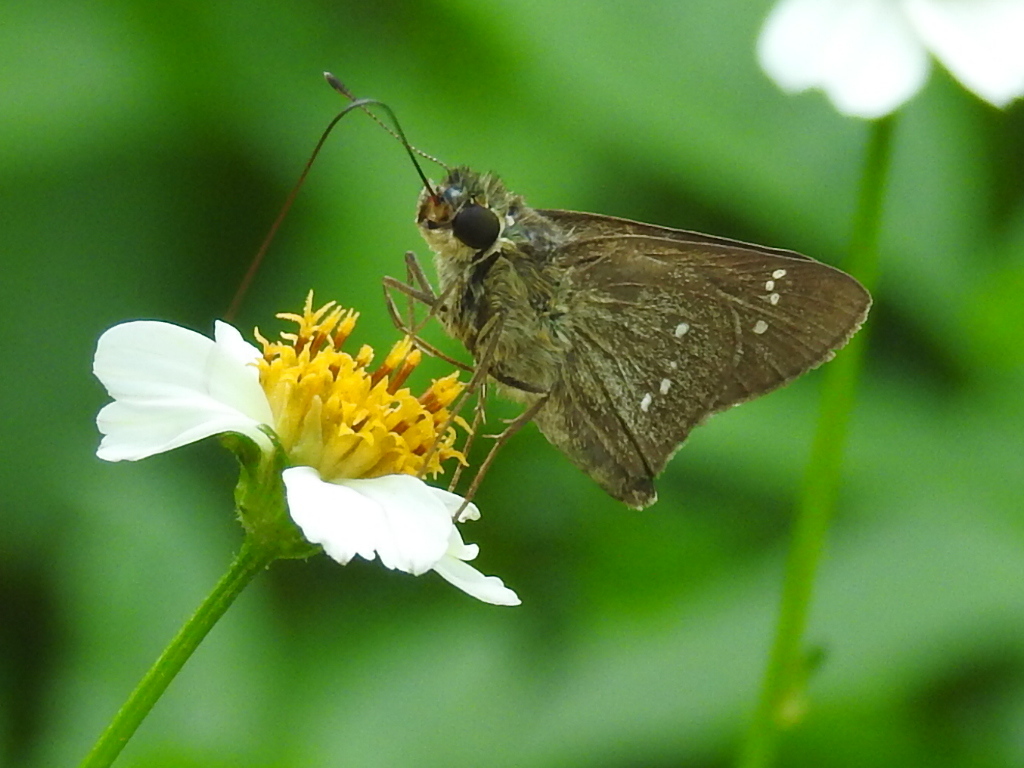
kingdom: Animalia
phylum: Arthropoda
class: Insecta
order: Lepidoptera
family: Hesperiidae
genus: Borbo
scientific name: Borbo cinnara
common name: Formosan swift
